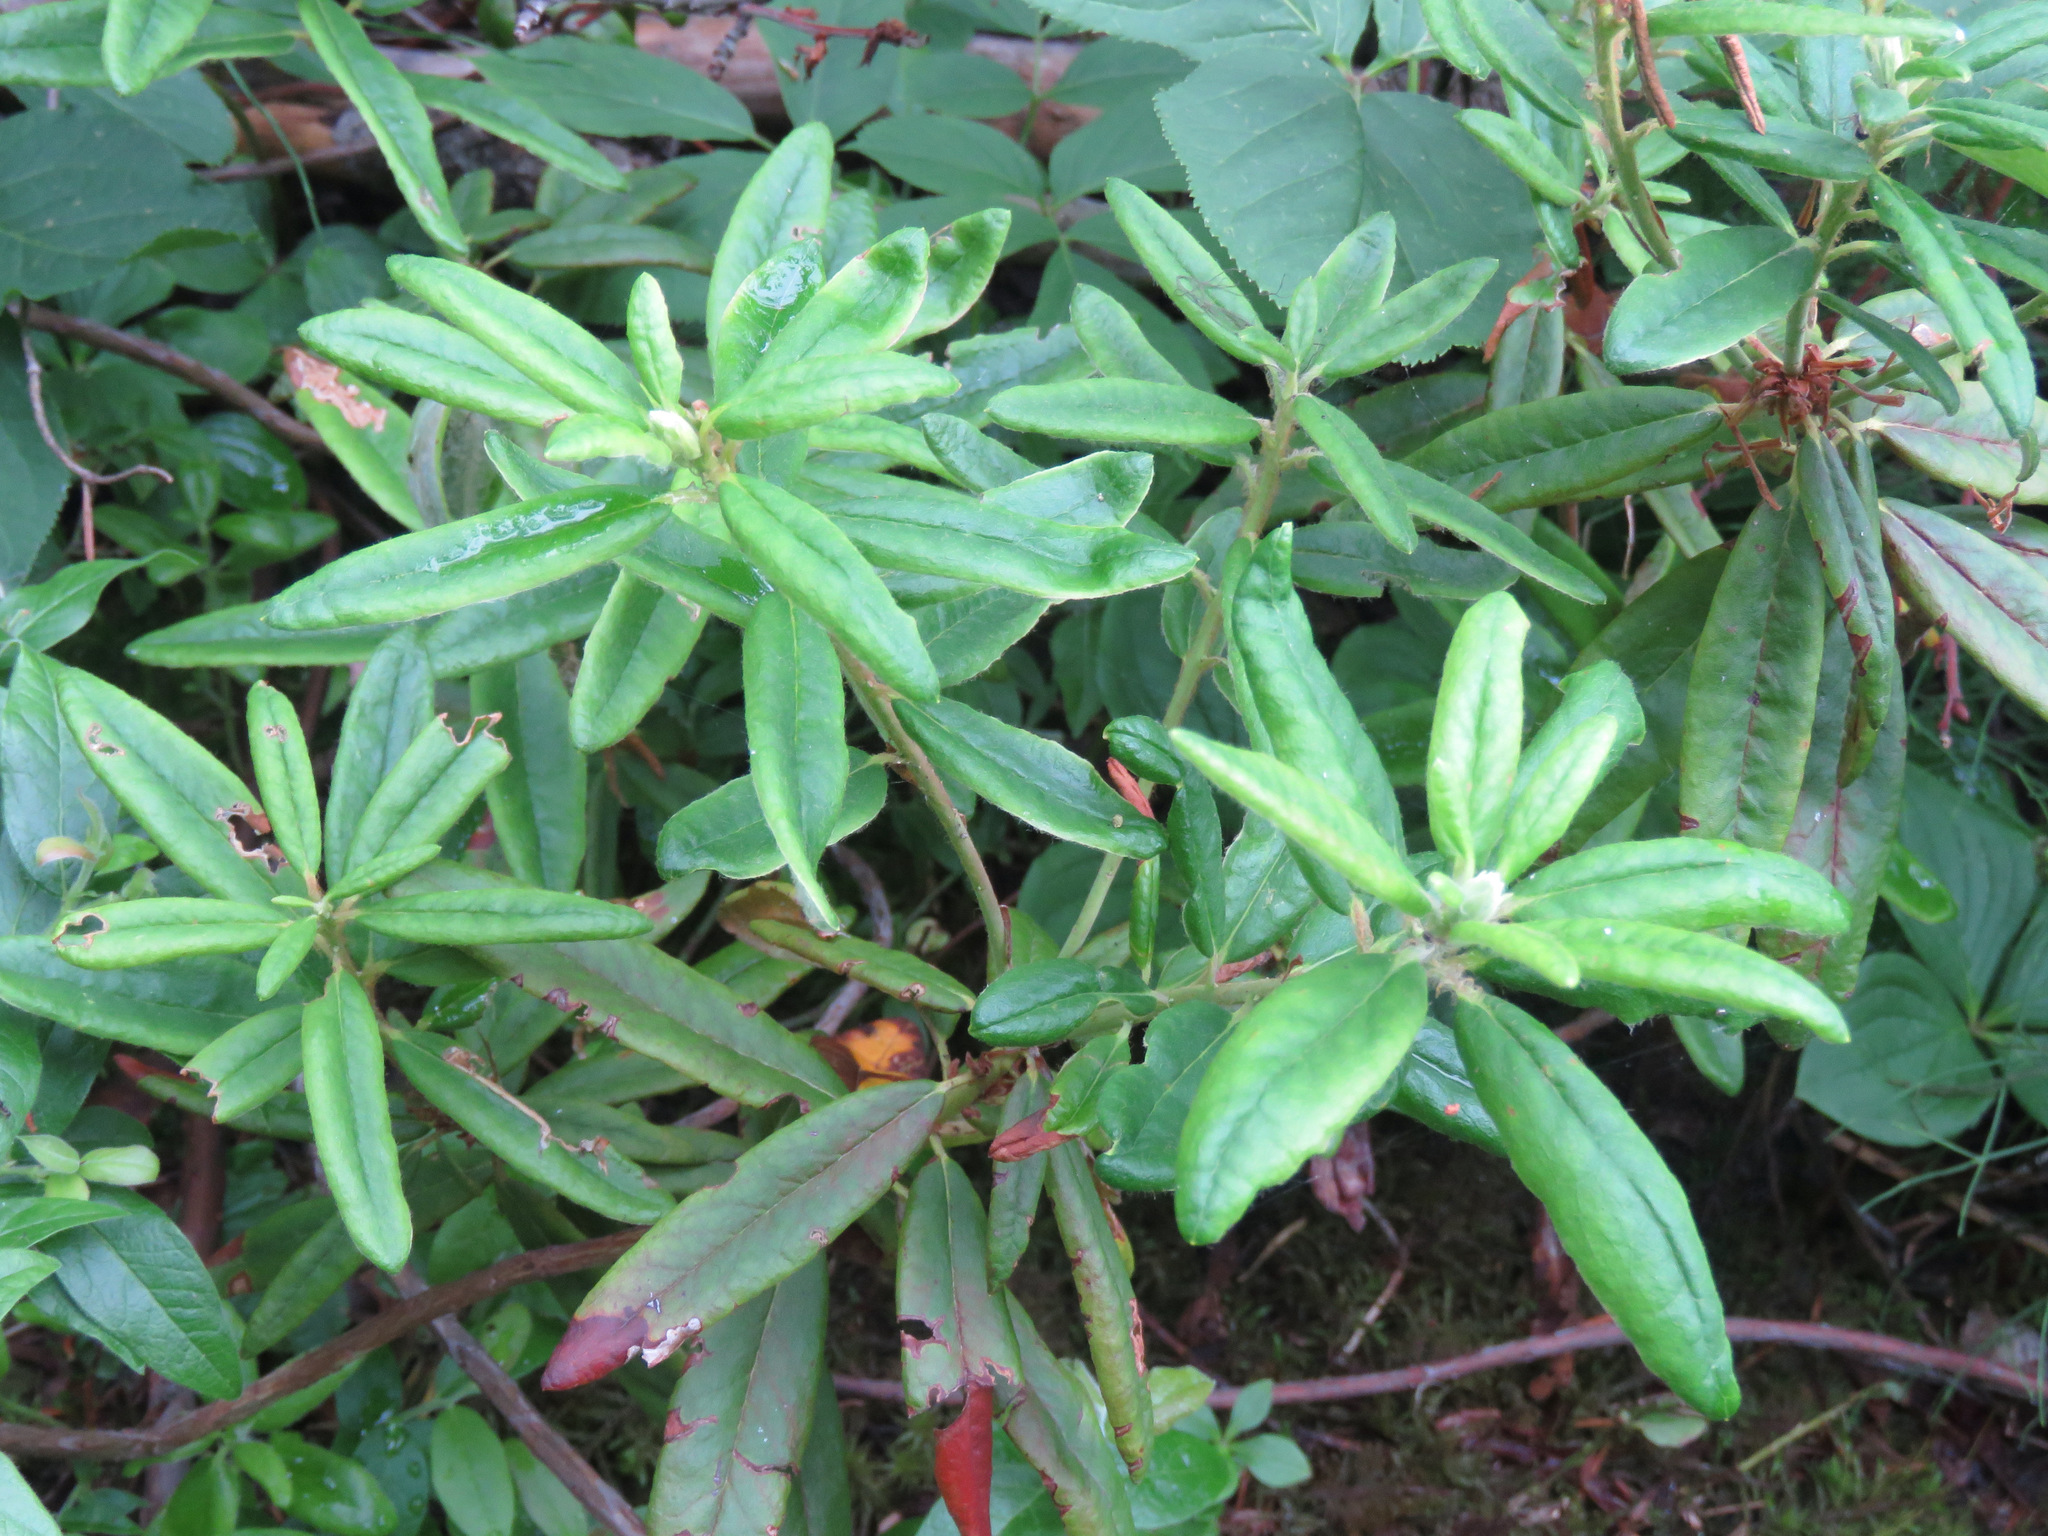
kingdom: Plantae
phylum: Tracheophyta
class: Magnoliopsida
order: Ericales
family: Ericaceae
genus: Rhododendron
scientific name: Rhododendron groenlandicum
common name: Bog labrador tea
